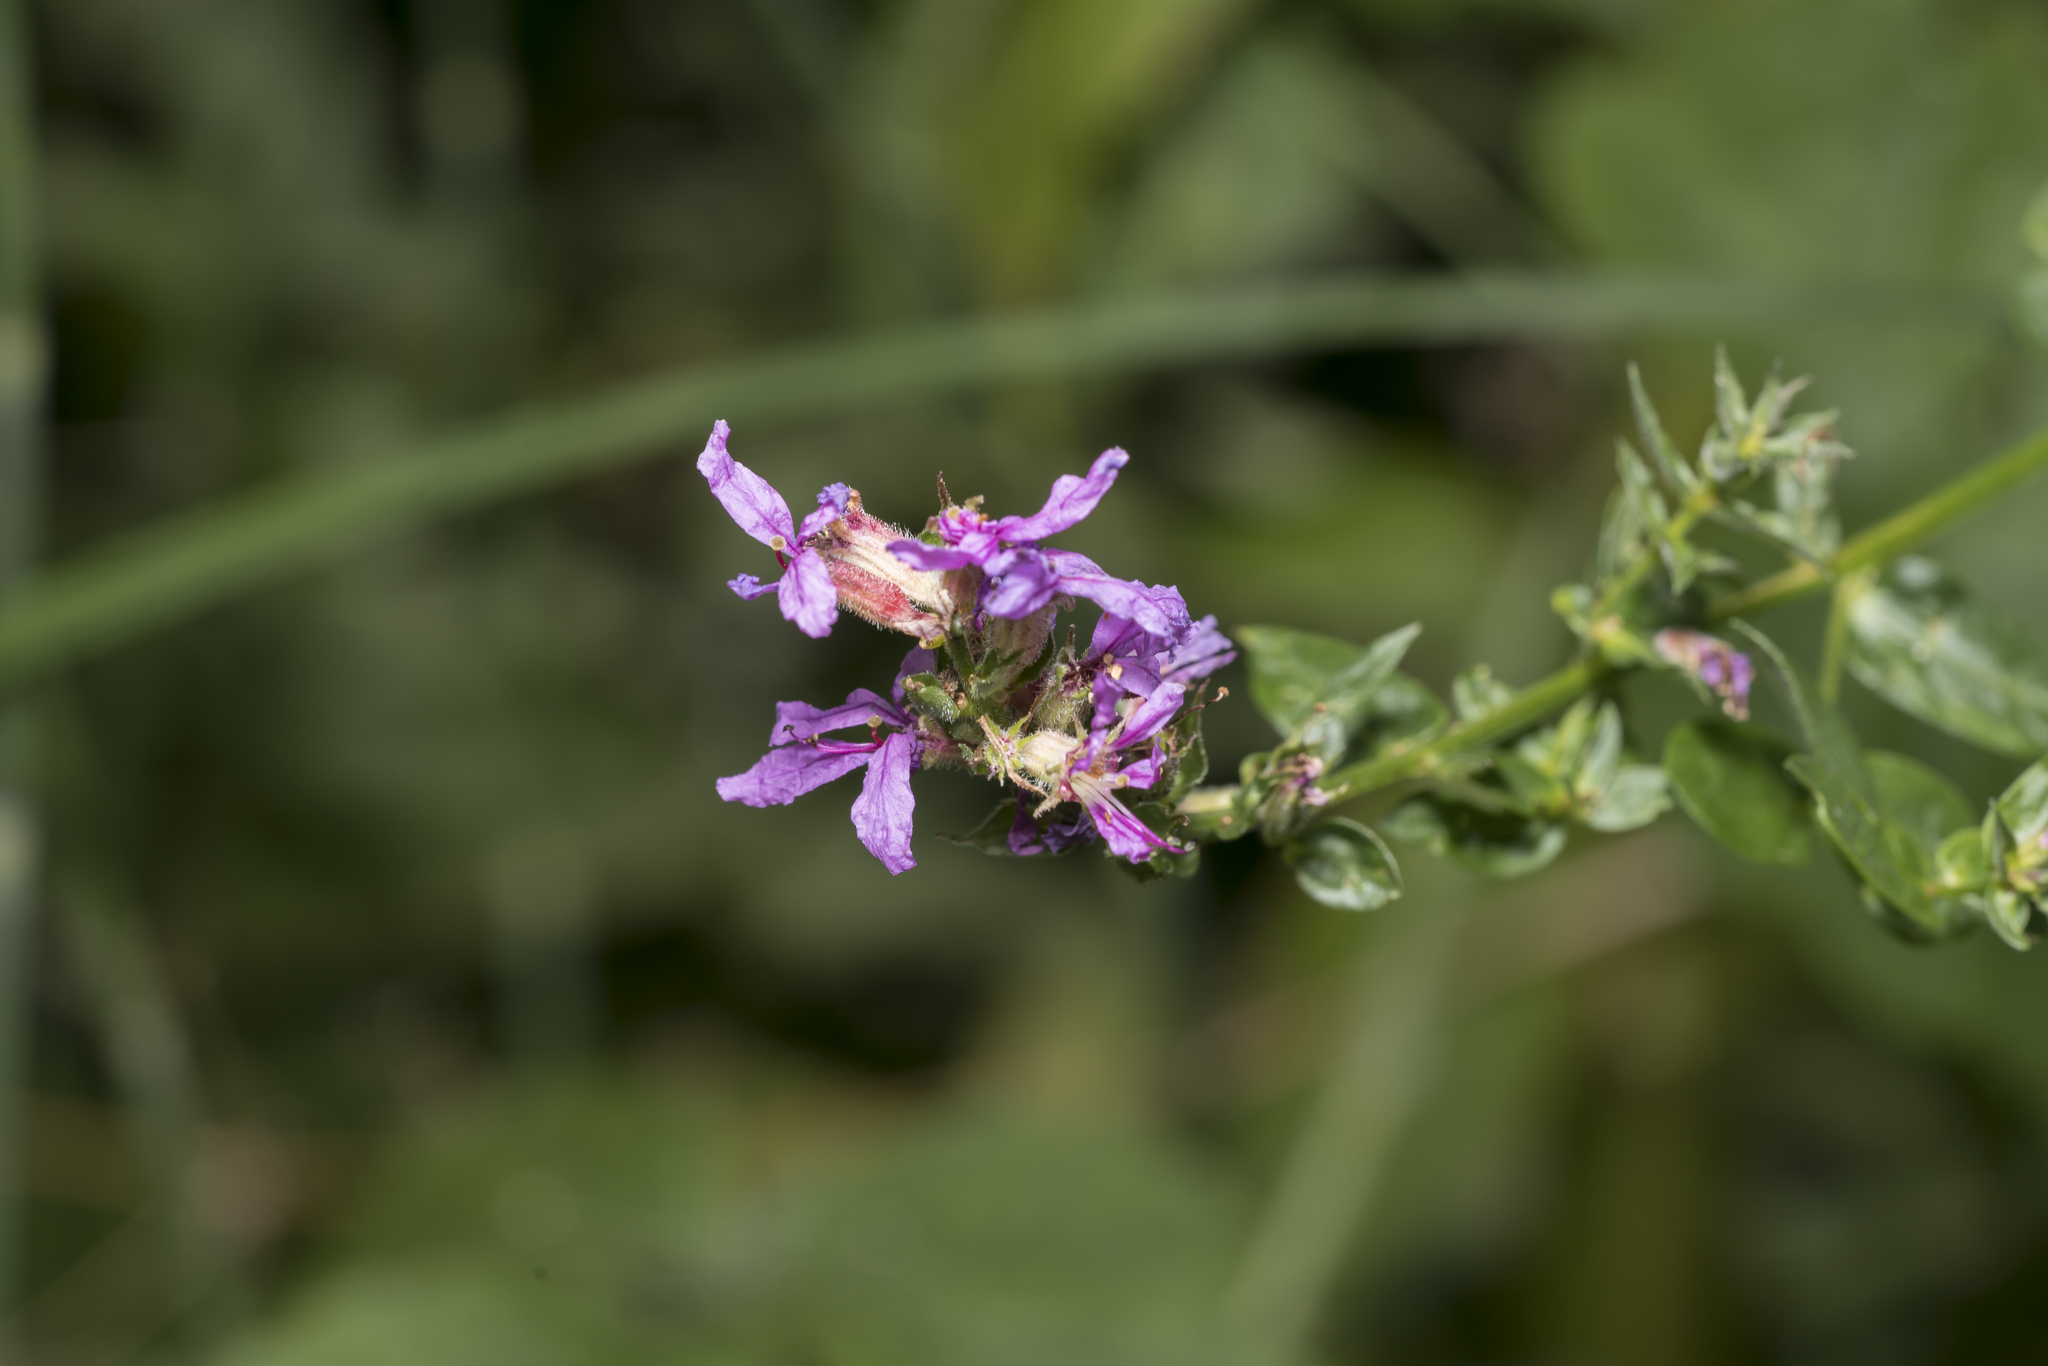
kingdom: Plantae
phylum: Tracheophyta
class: Magnoliopsida
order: Myrtales
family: Lythraceae
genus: Lythrum
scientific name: Lythrum salicaria
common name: Purple loosestrife
